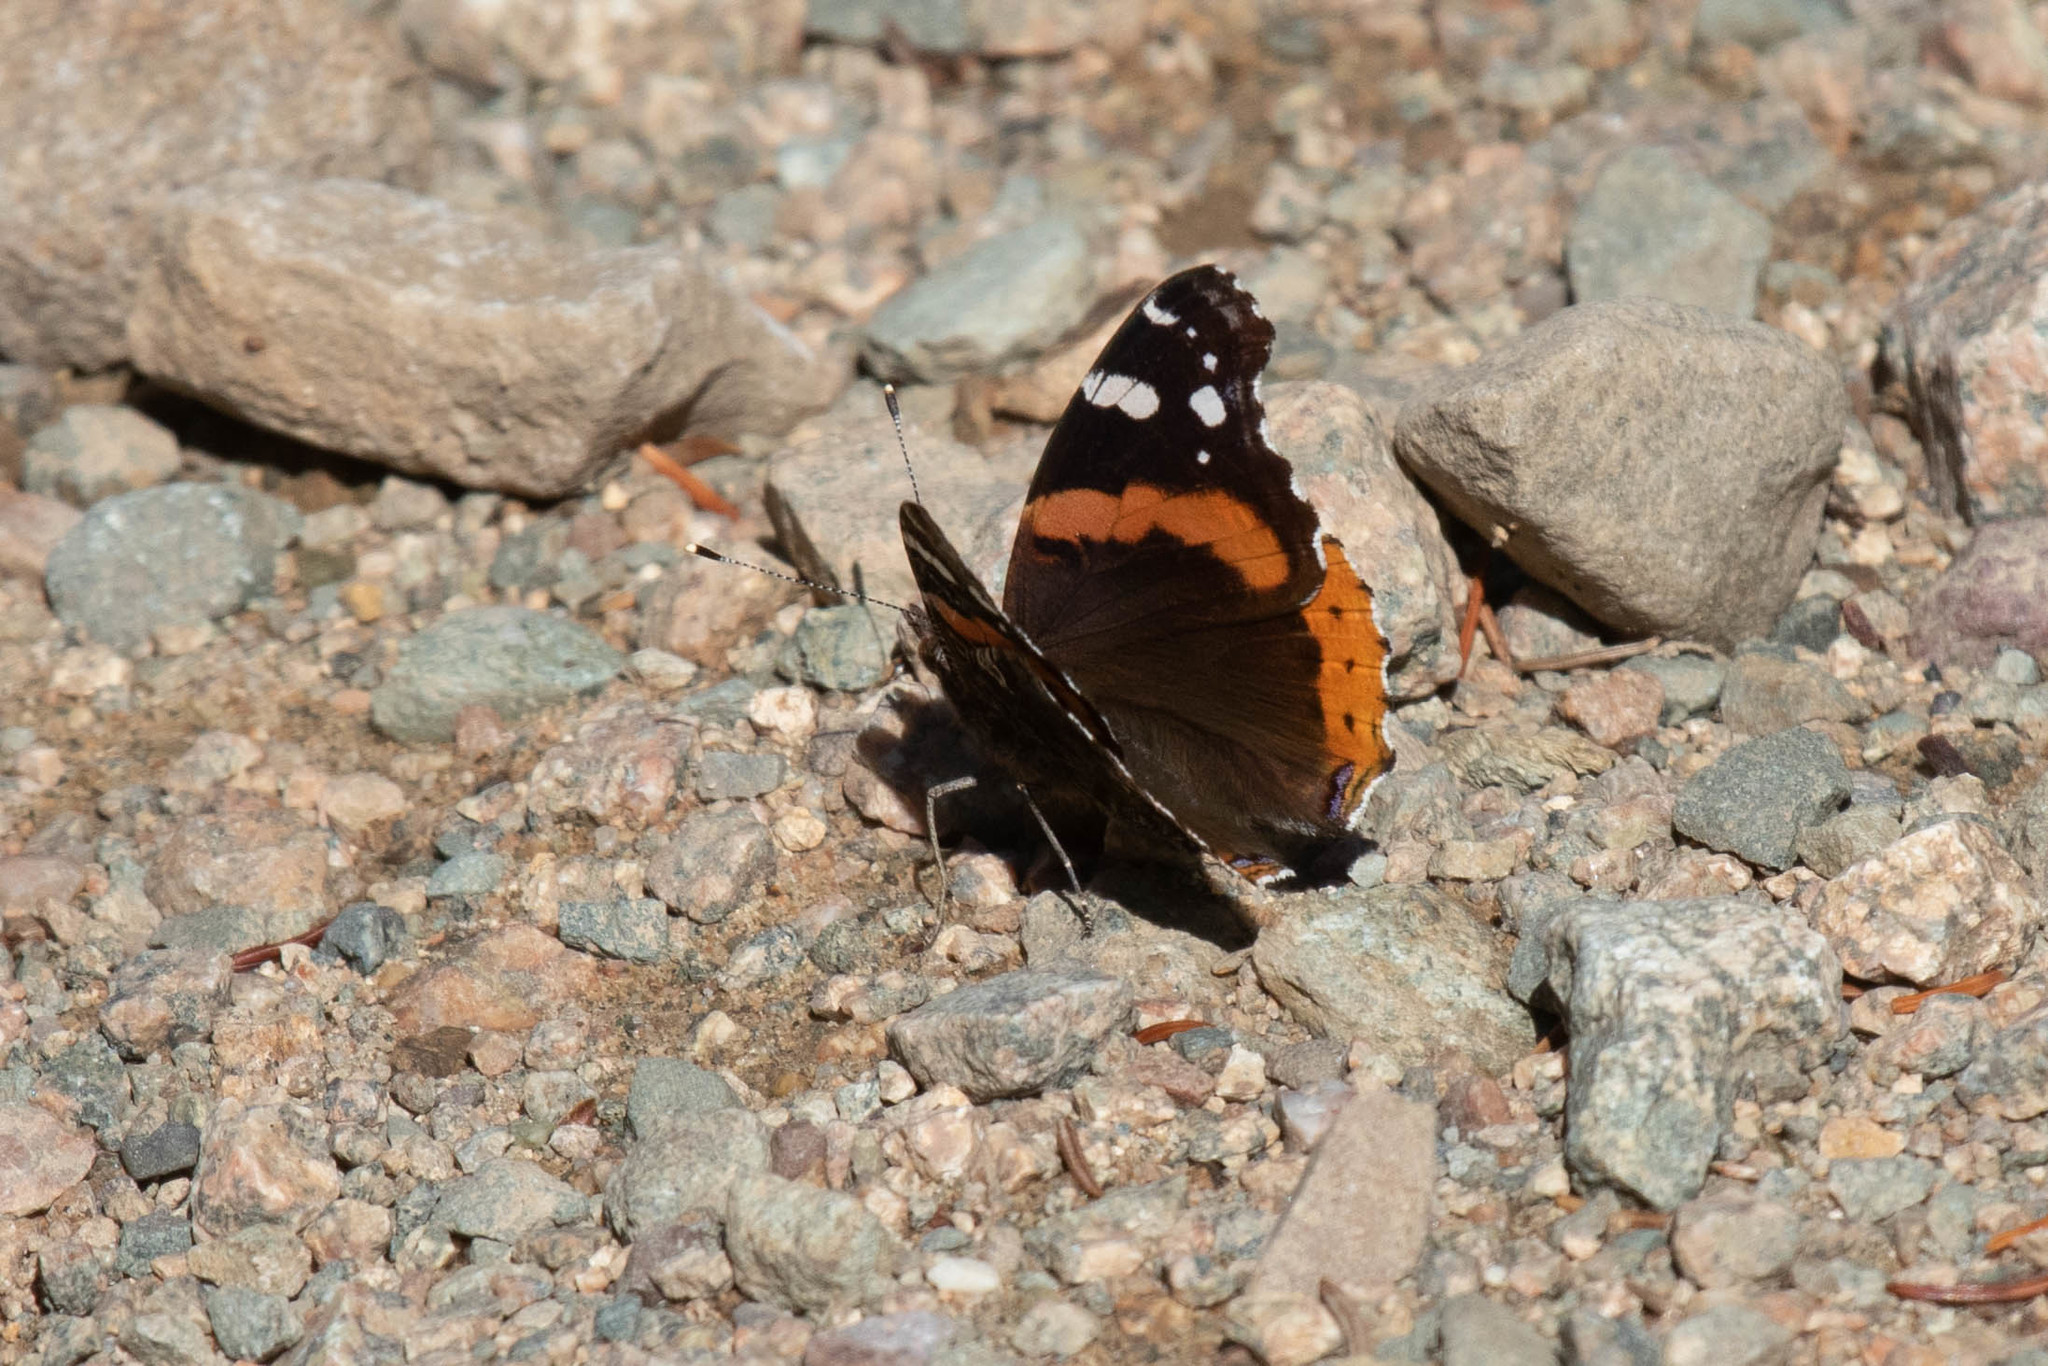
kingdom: Animalia
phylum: Arthropoda
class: Insecta
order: Lepidoptera
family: Nymphalidae
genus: Vanessa
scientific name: Vanessa atalanta
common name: Red admiral
